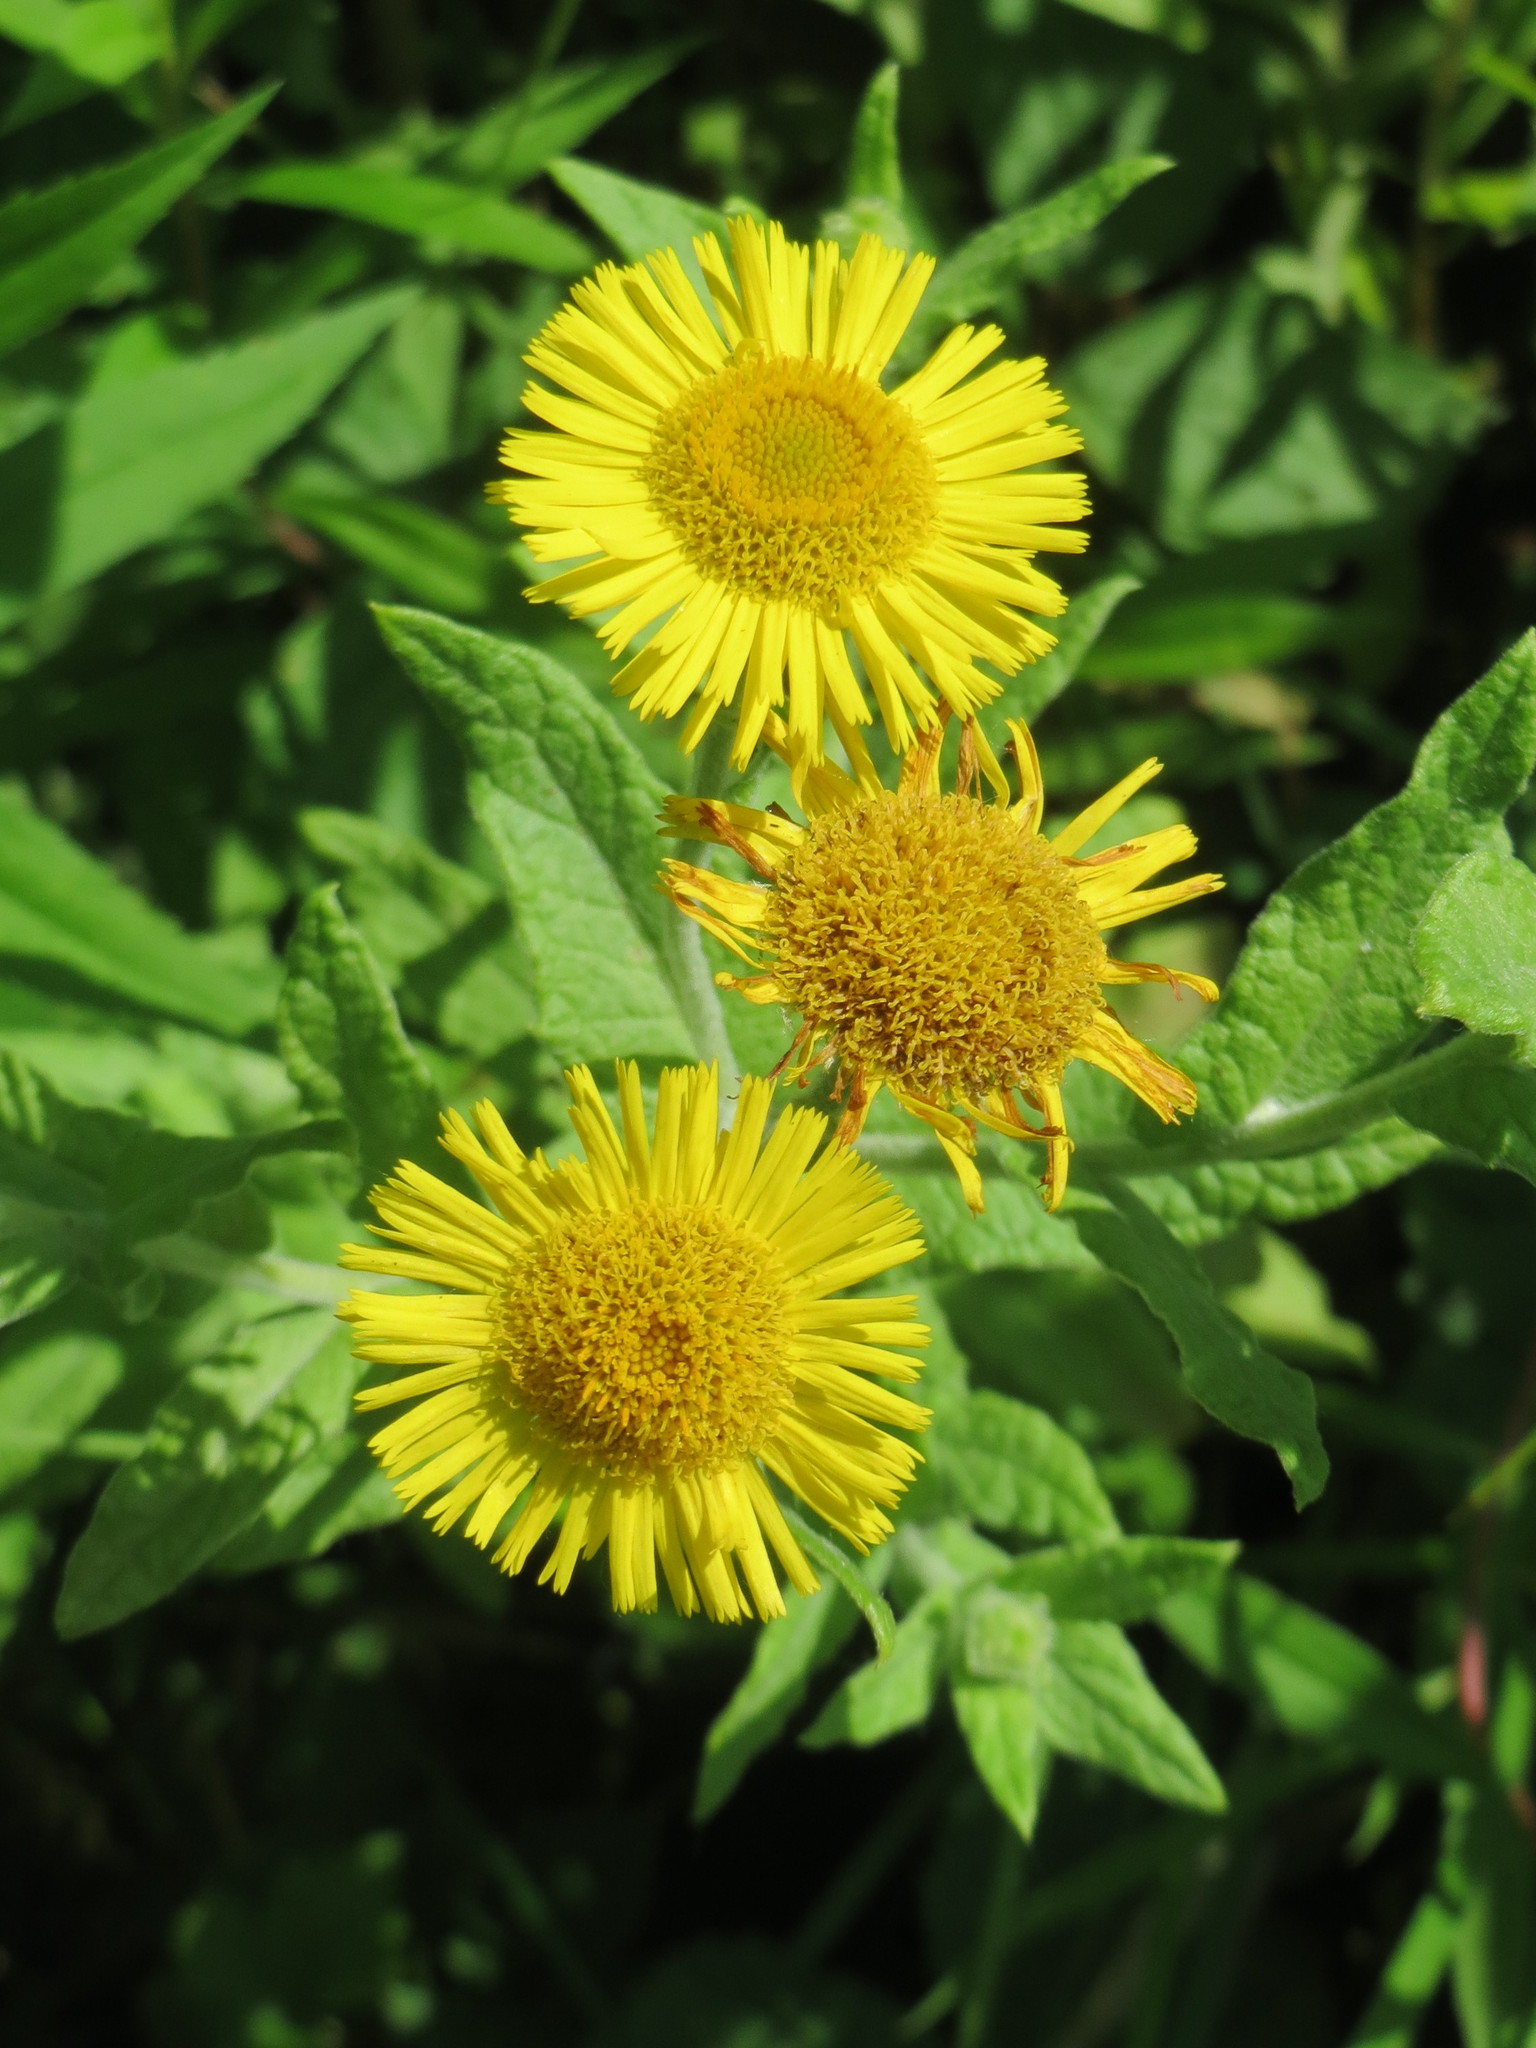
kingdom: Plantae
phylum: Tracheophyta
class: Magnoliopsida
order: Asterales
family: Asteraceae
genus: Pulicaria
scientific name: Pulicaria dysenterica
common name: Common fleabane
